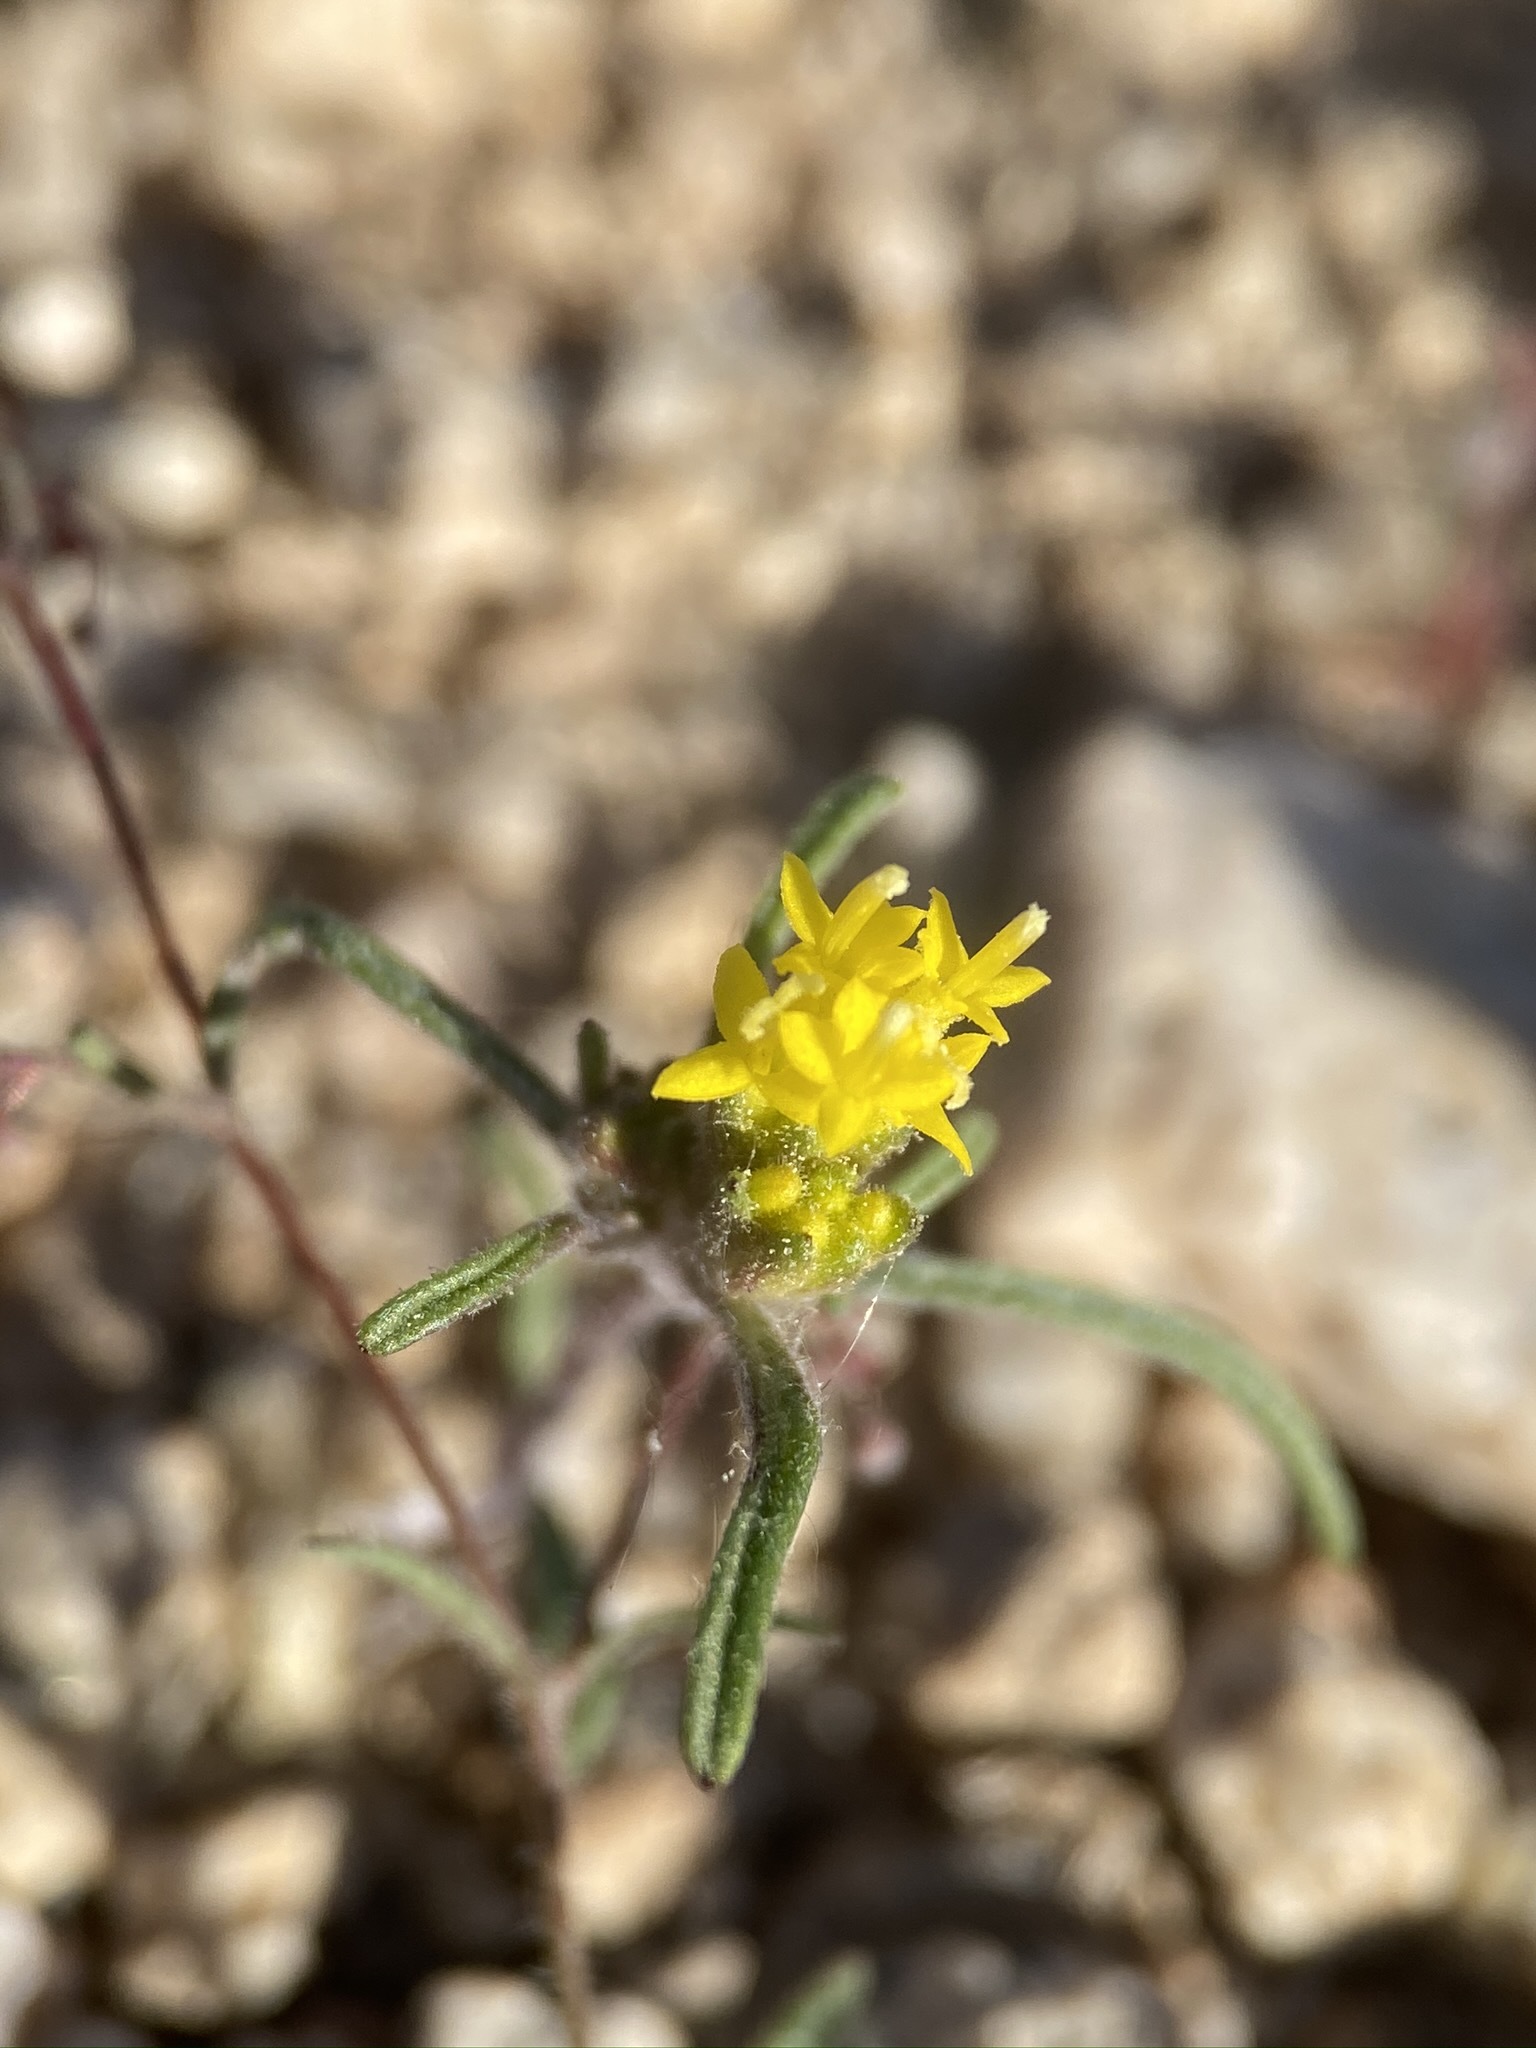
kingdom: Plantae
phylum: Tracheophyta
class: Magnoliopsida
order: Asterales
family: Asteraceae
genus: Orochaenactis
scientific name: Orochaenactis thysanocarpha
